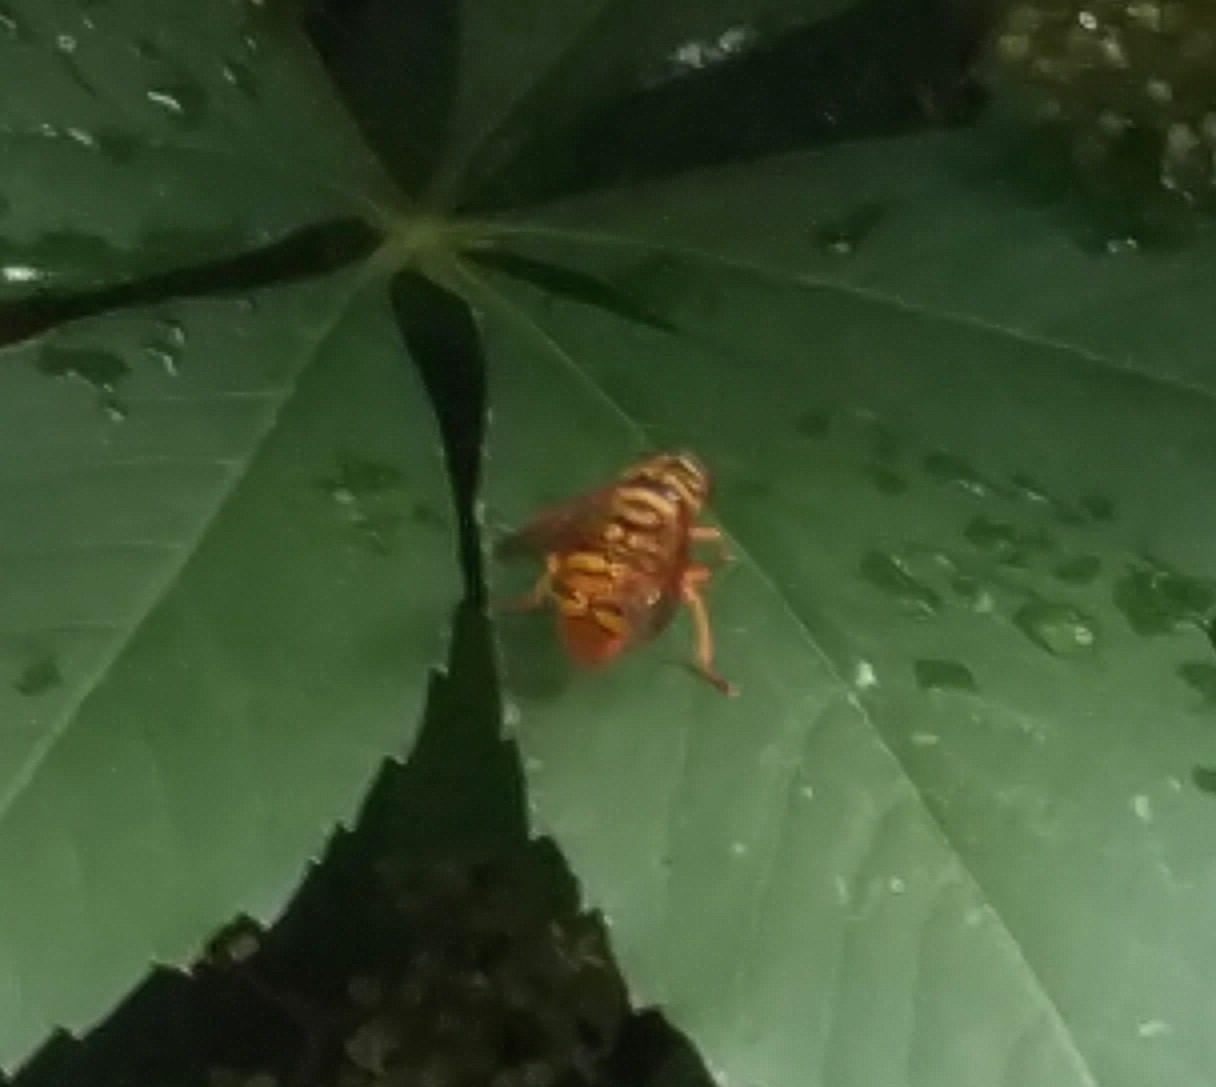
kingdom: Animalia
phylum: Arthropoda
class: Insecta
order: Diptera
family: Syrphidae
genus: Milesia
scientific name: Milesia virginiensis
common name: Virginia giant
